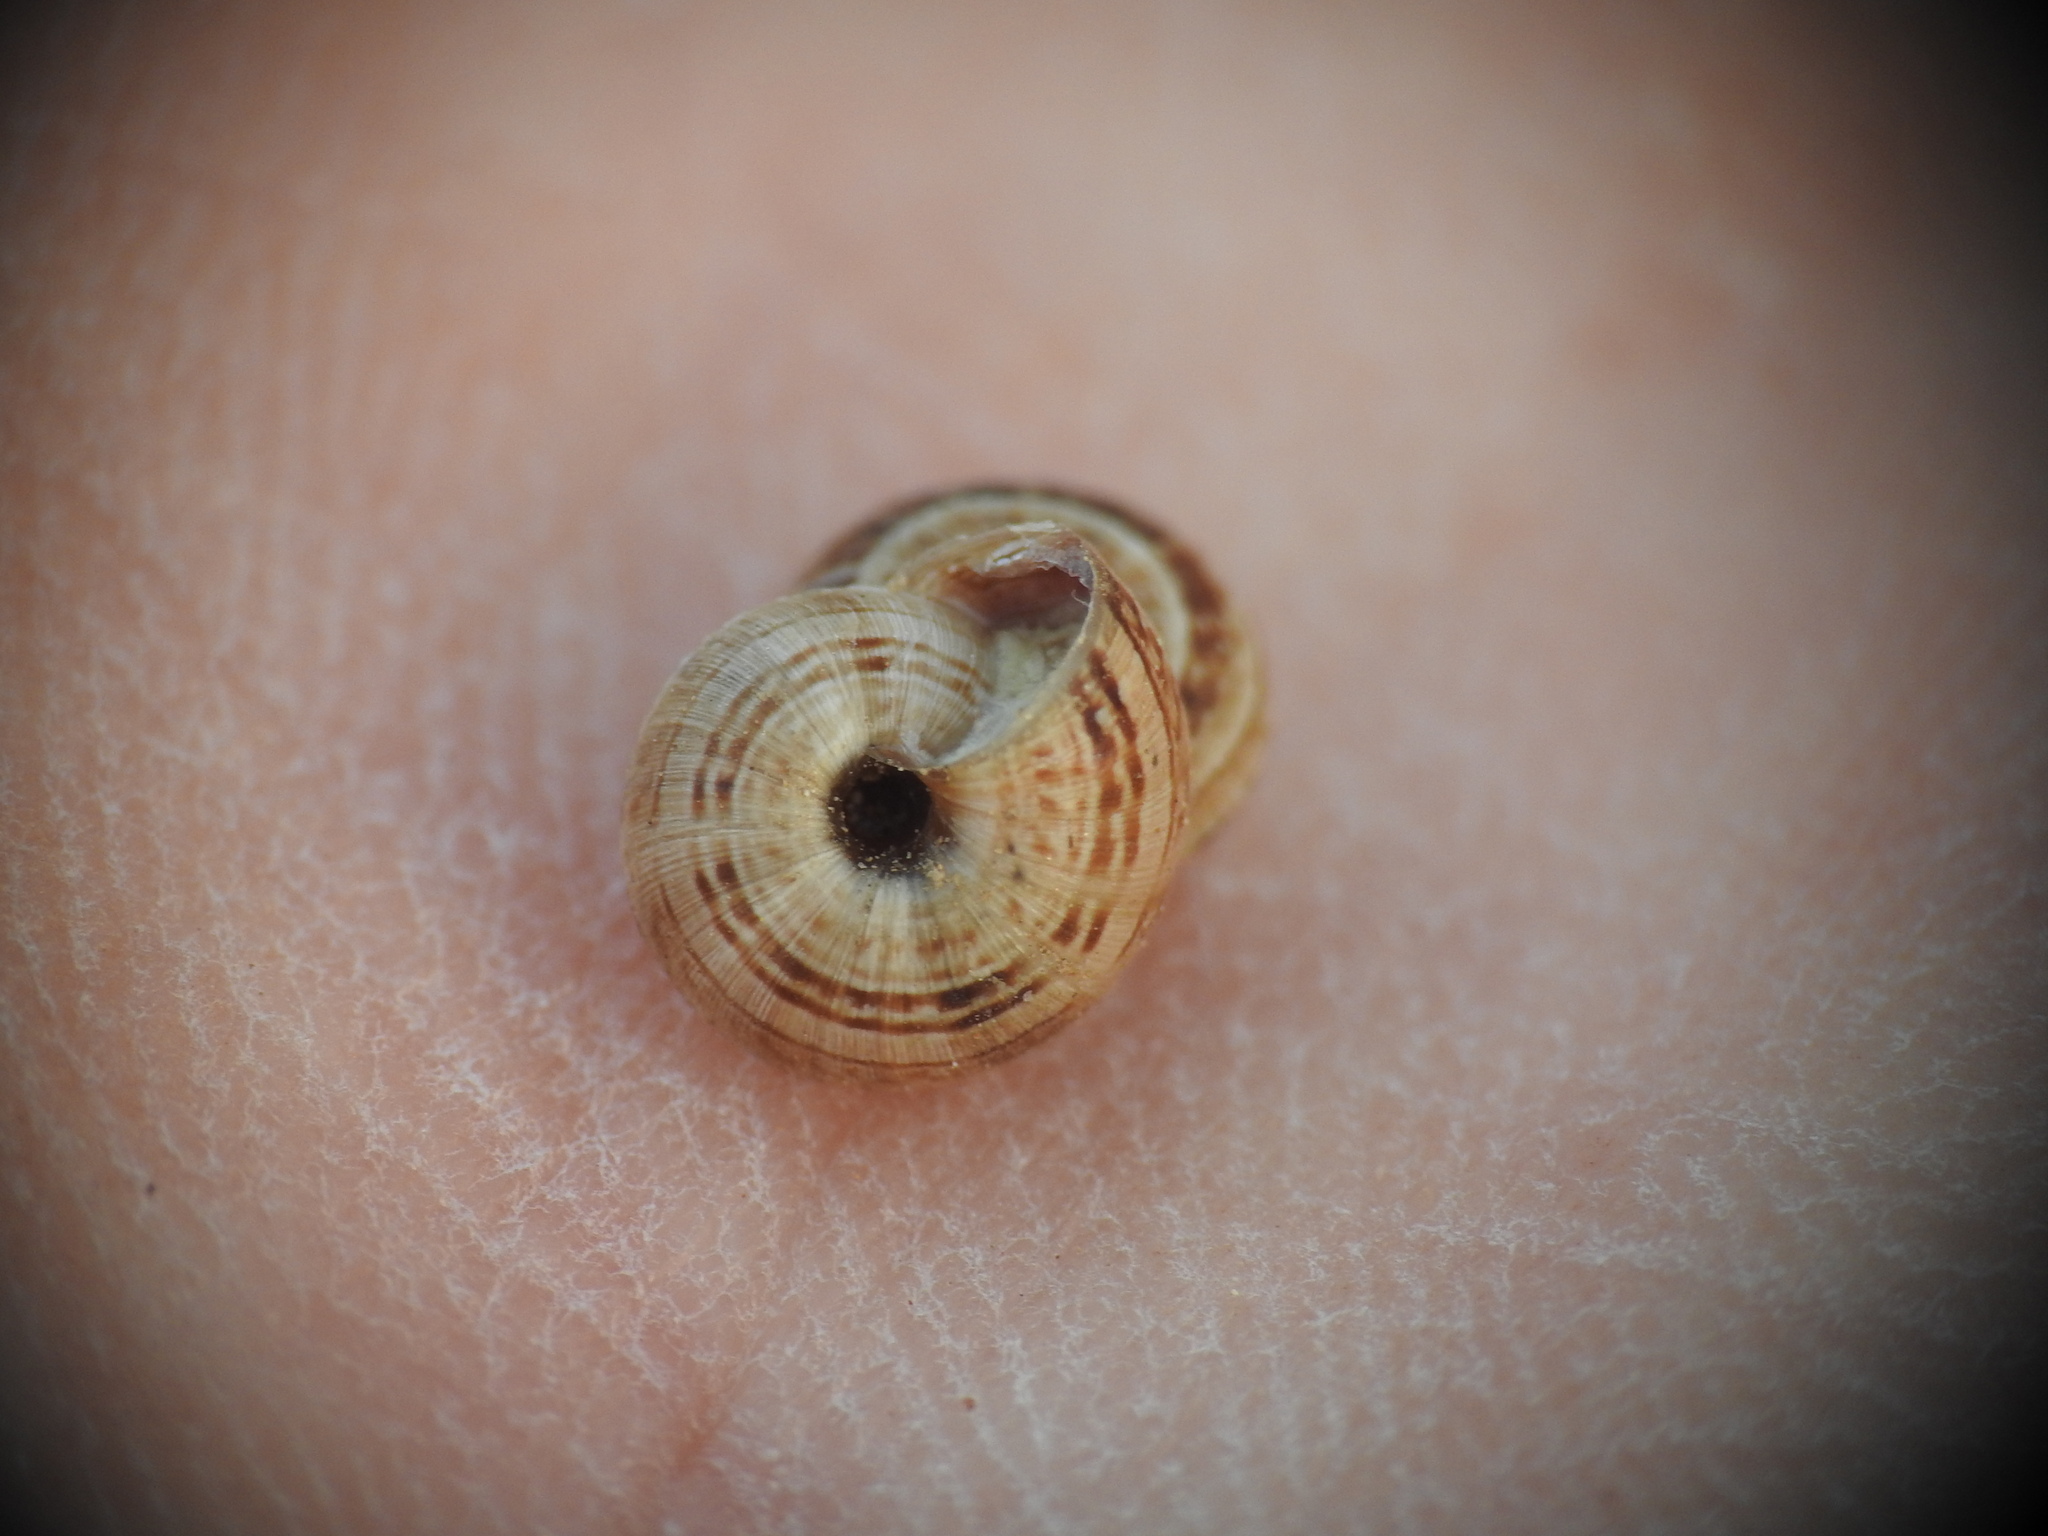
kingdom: Animalia
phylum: Mollusca
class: Gastropoda
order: Stylommatophora
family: Geomitridae
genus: Xerocrassa
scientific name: Xerocrassa cretica
